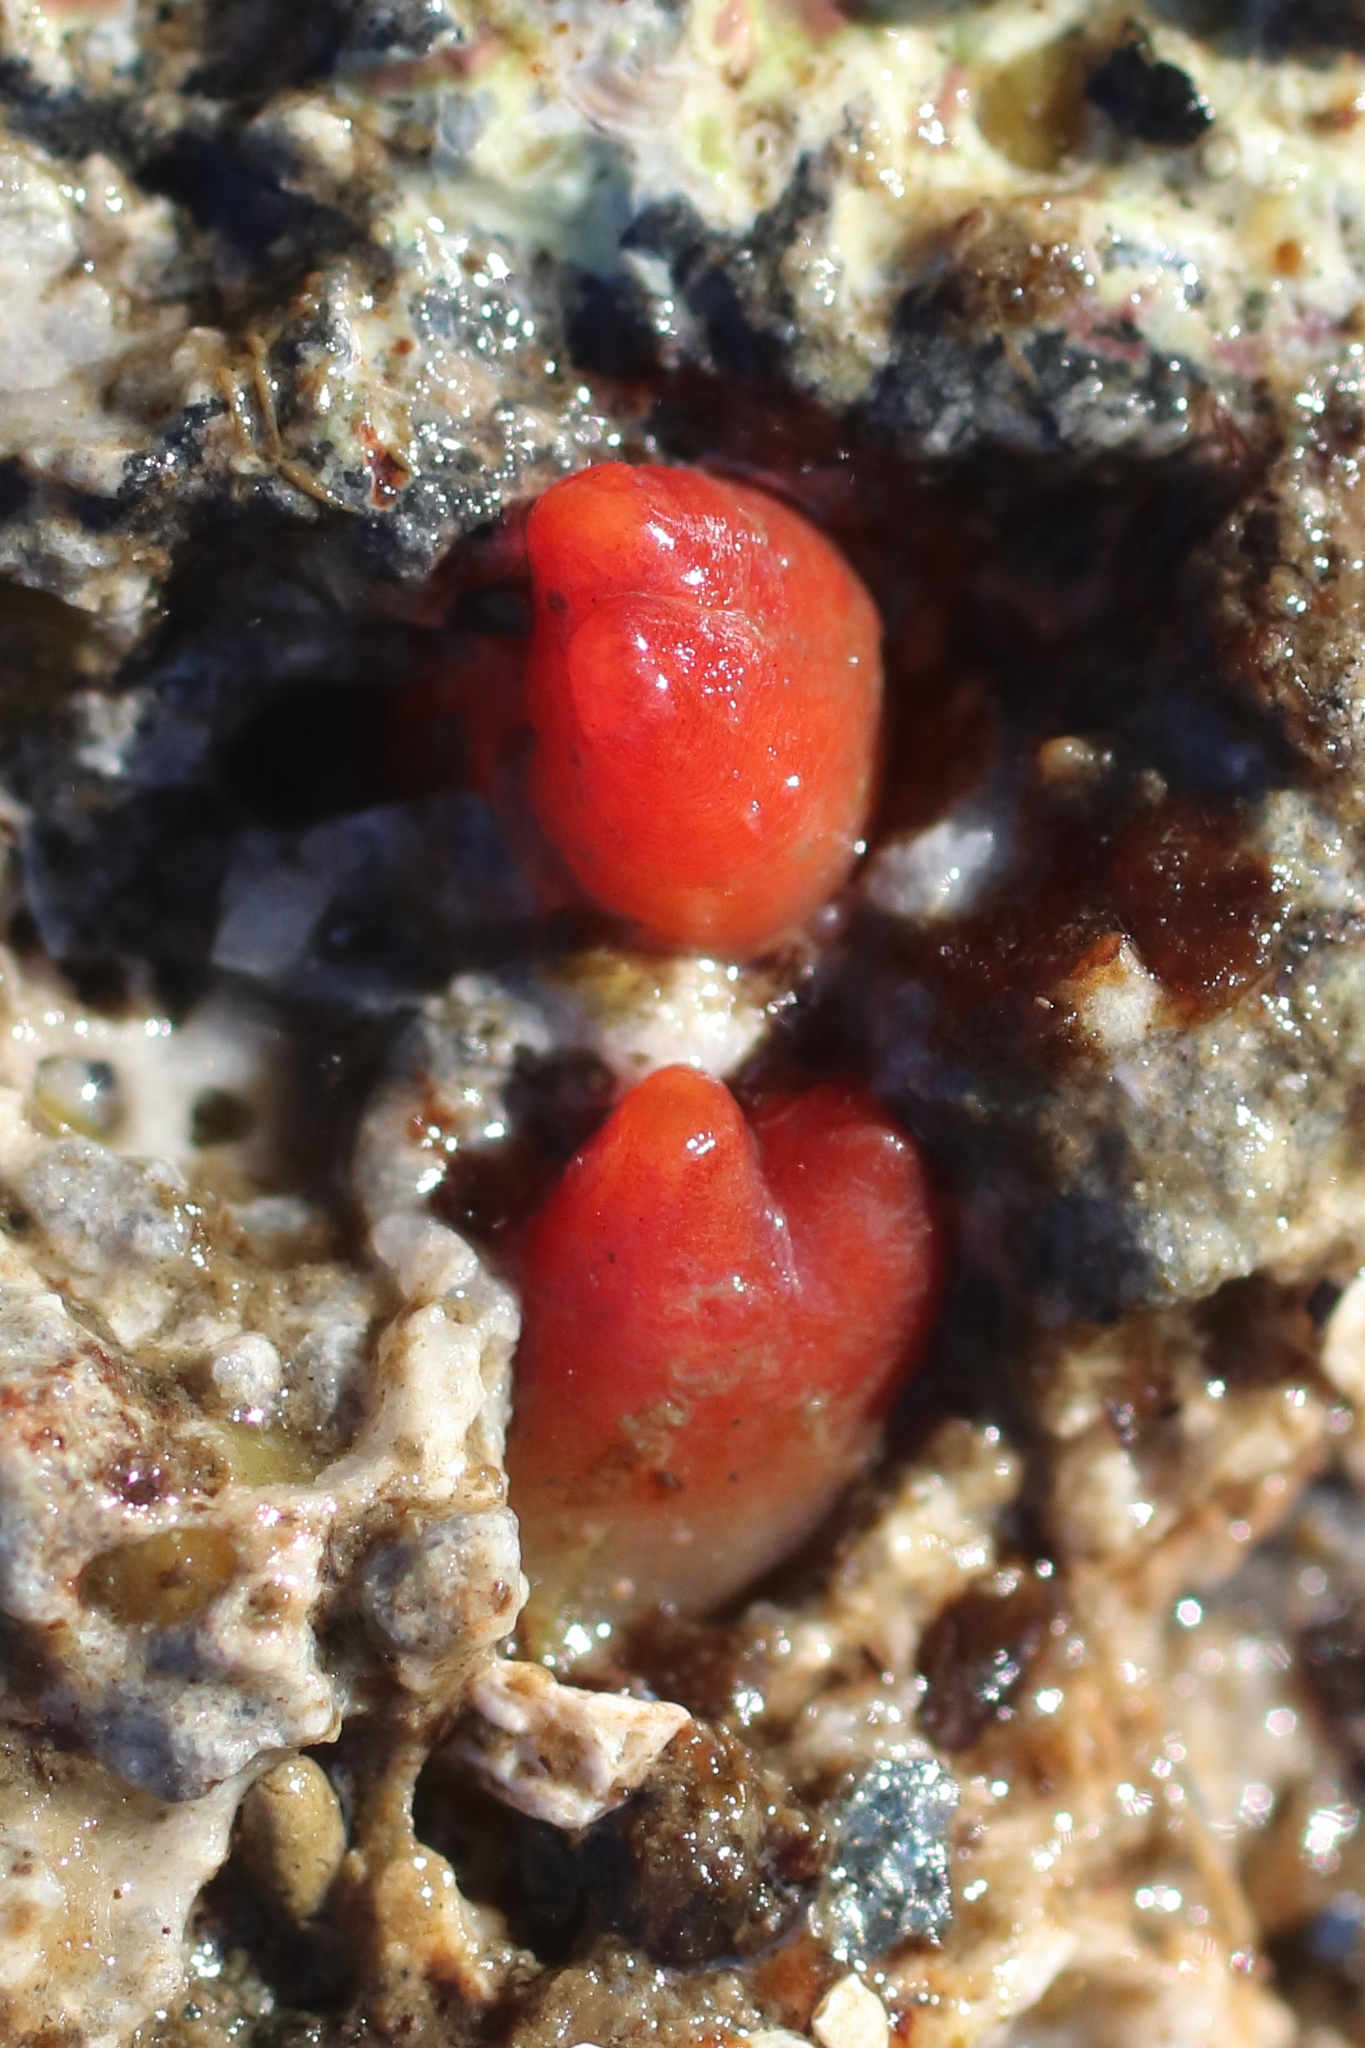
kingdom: Animalia
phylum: Mollusca
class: Bivalvia
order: Adapedonta
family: Hiatellidae
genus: Hiatella
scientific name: Hiatella arctica
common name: Arctic hiatella
